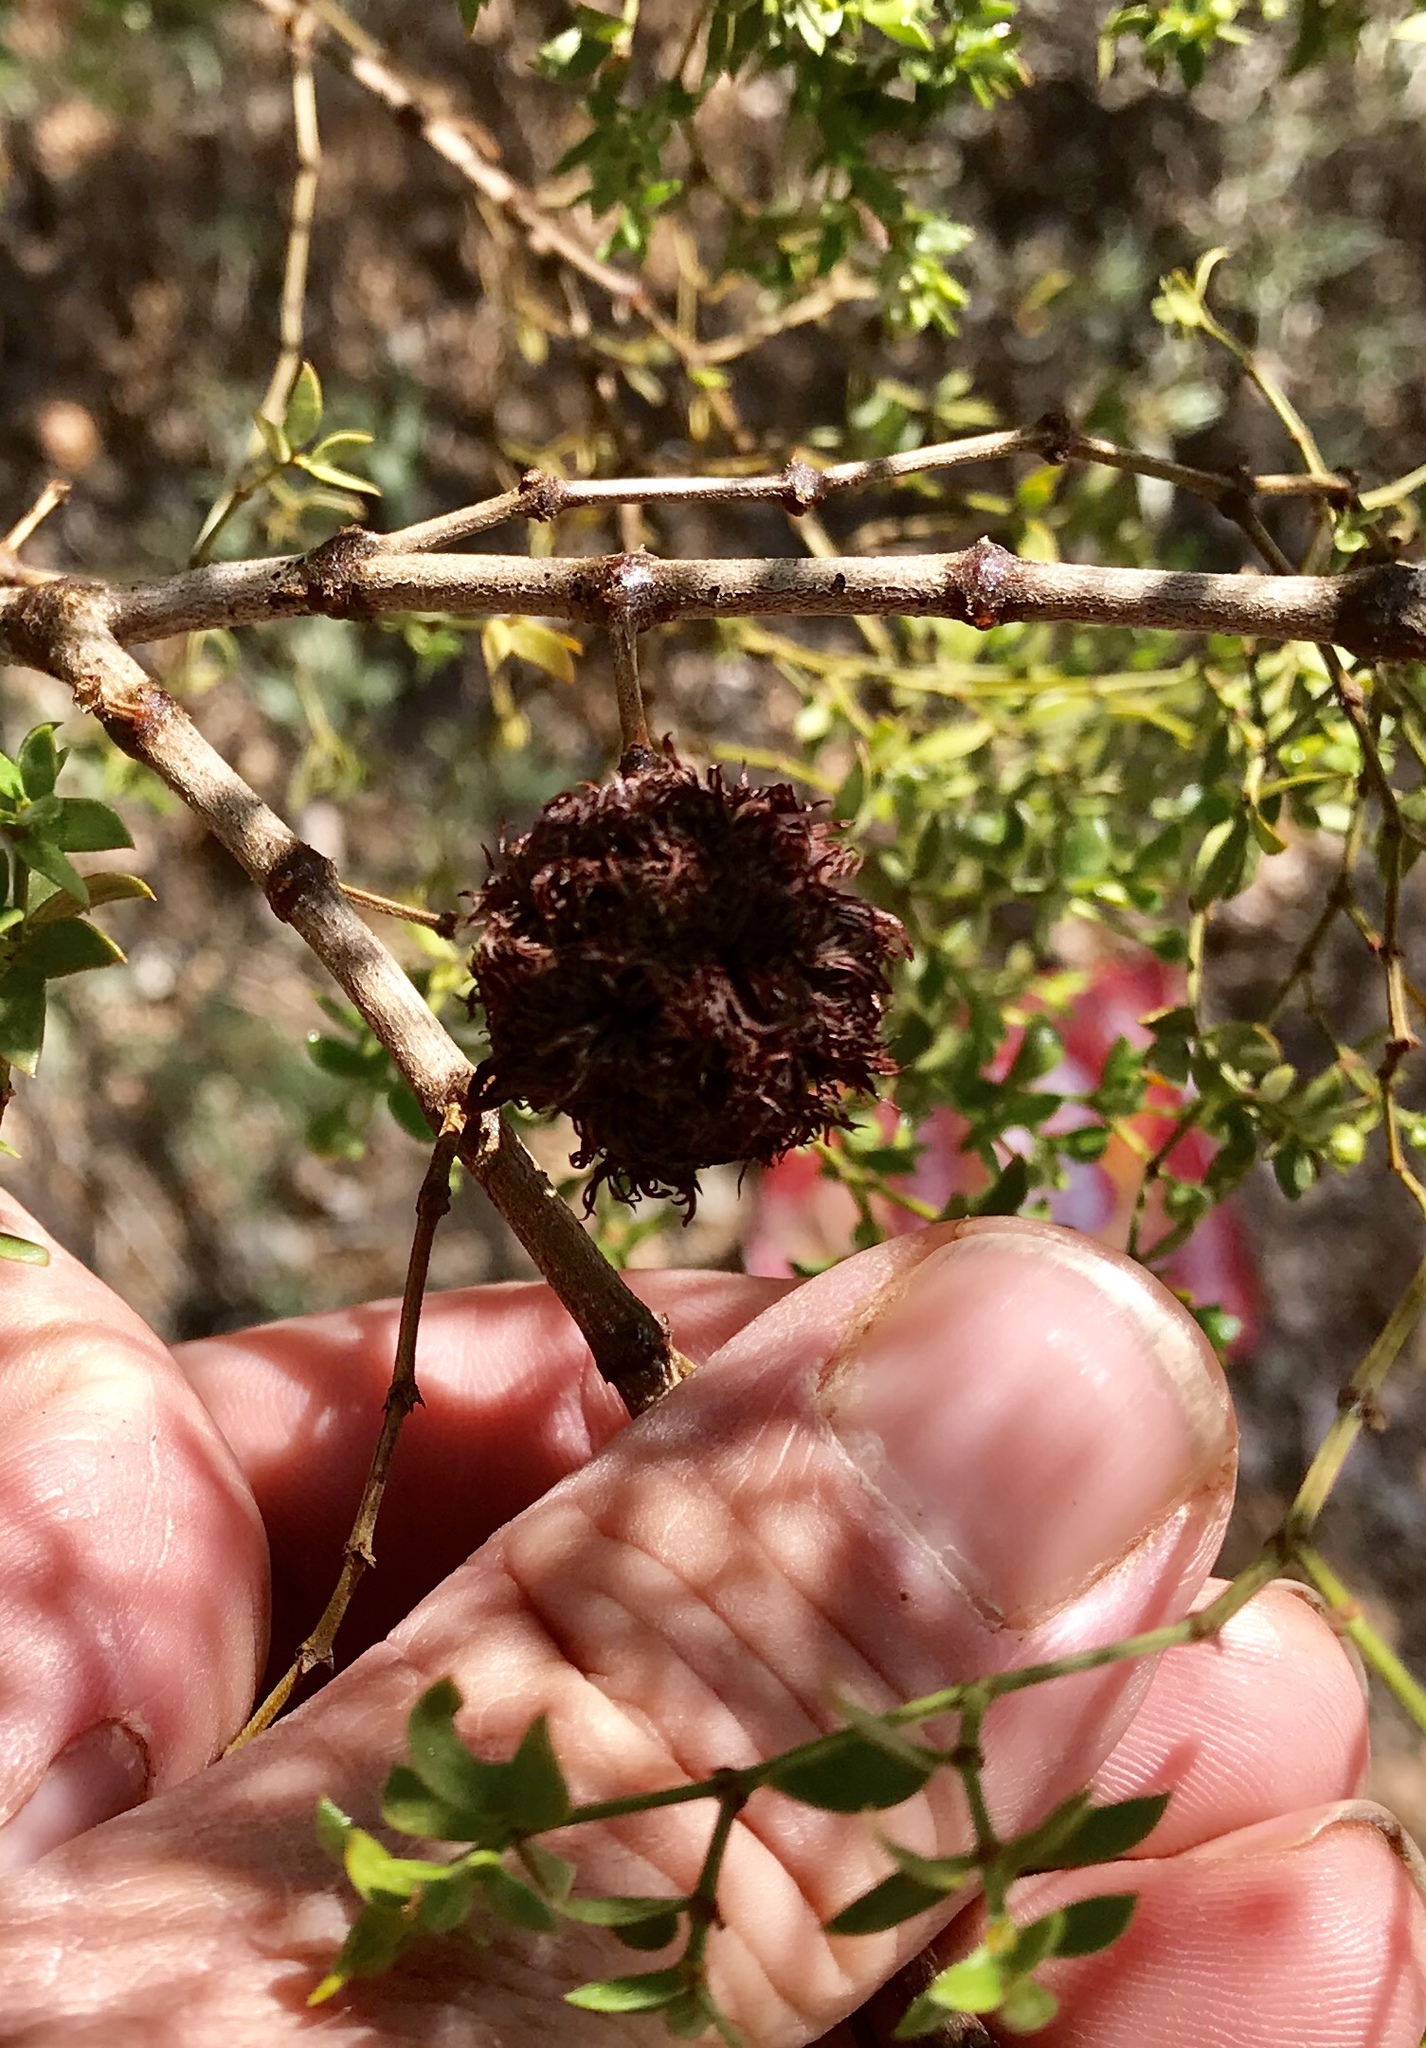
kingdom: Animalia
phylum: Arthropoda
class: Insecta
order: Diptera
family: Cecidomyiidae
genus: Asphondylia
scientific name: Asphondylia auripila
